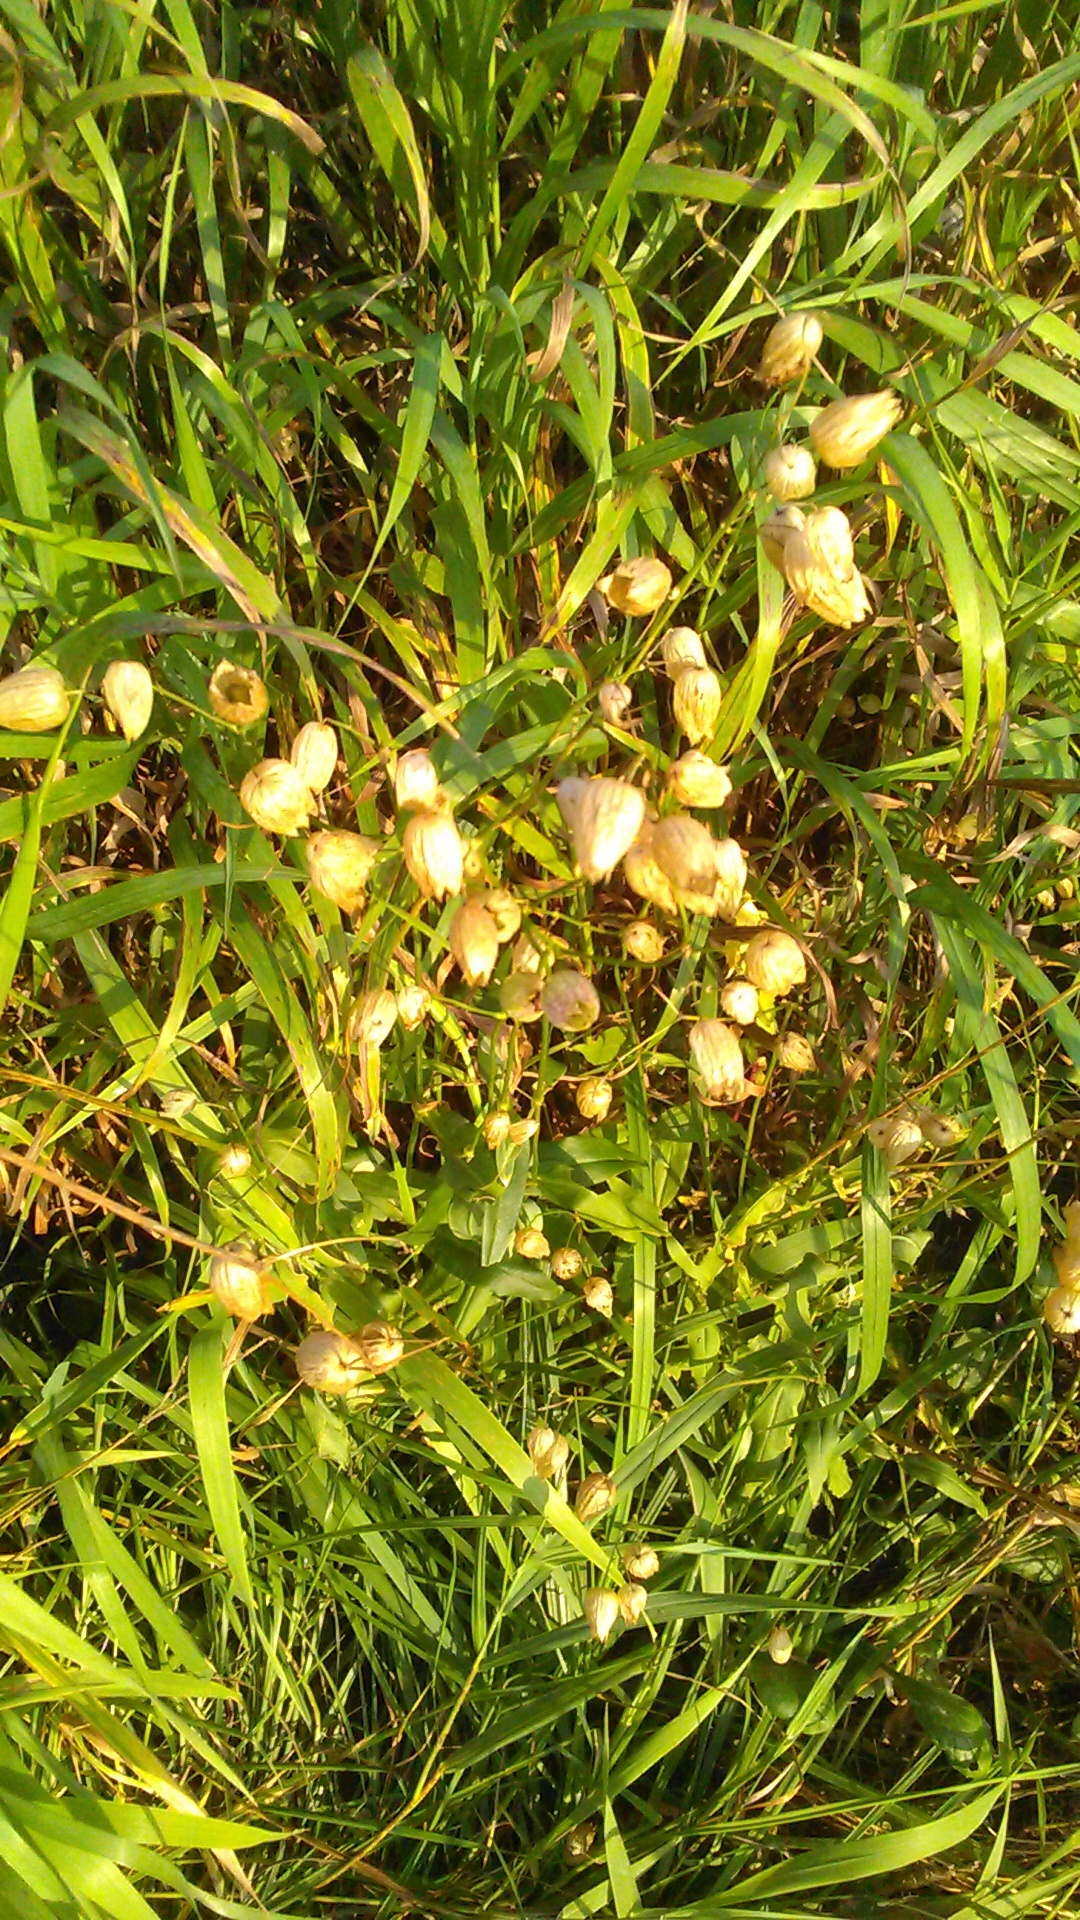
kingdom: Plantae
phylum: Tracheophyta
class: Magnoliopsida
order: Caryophyllales
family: Caryophyllaceae
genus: Silene
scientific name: Silene vulgaris
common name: Bladder campion
